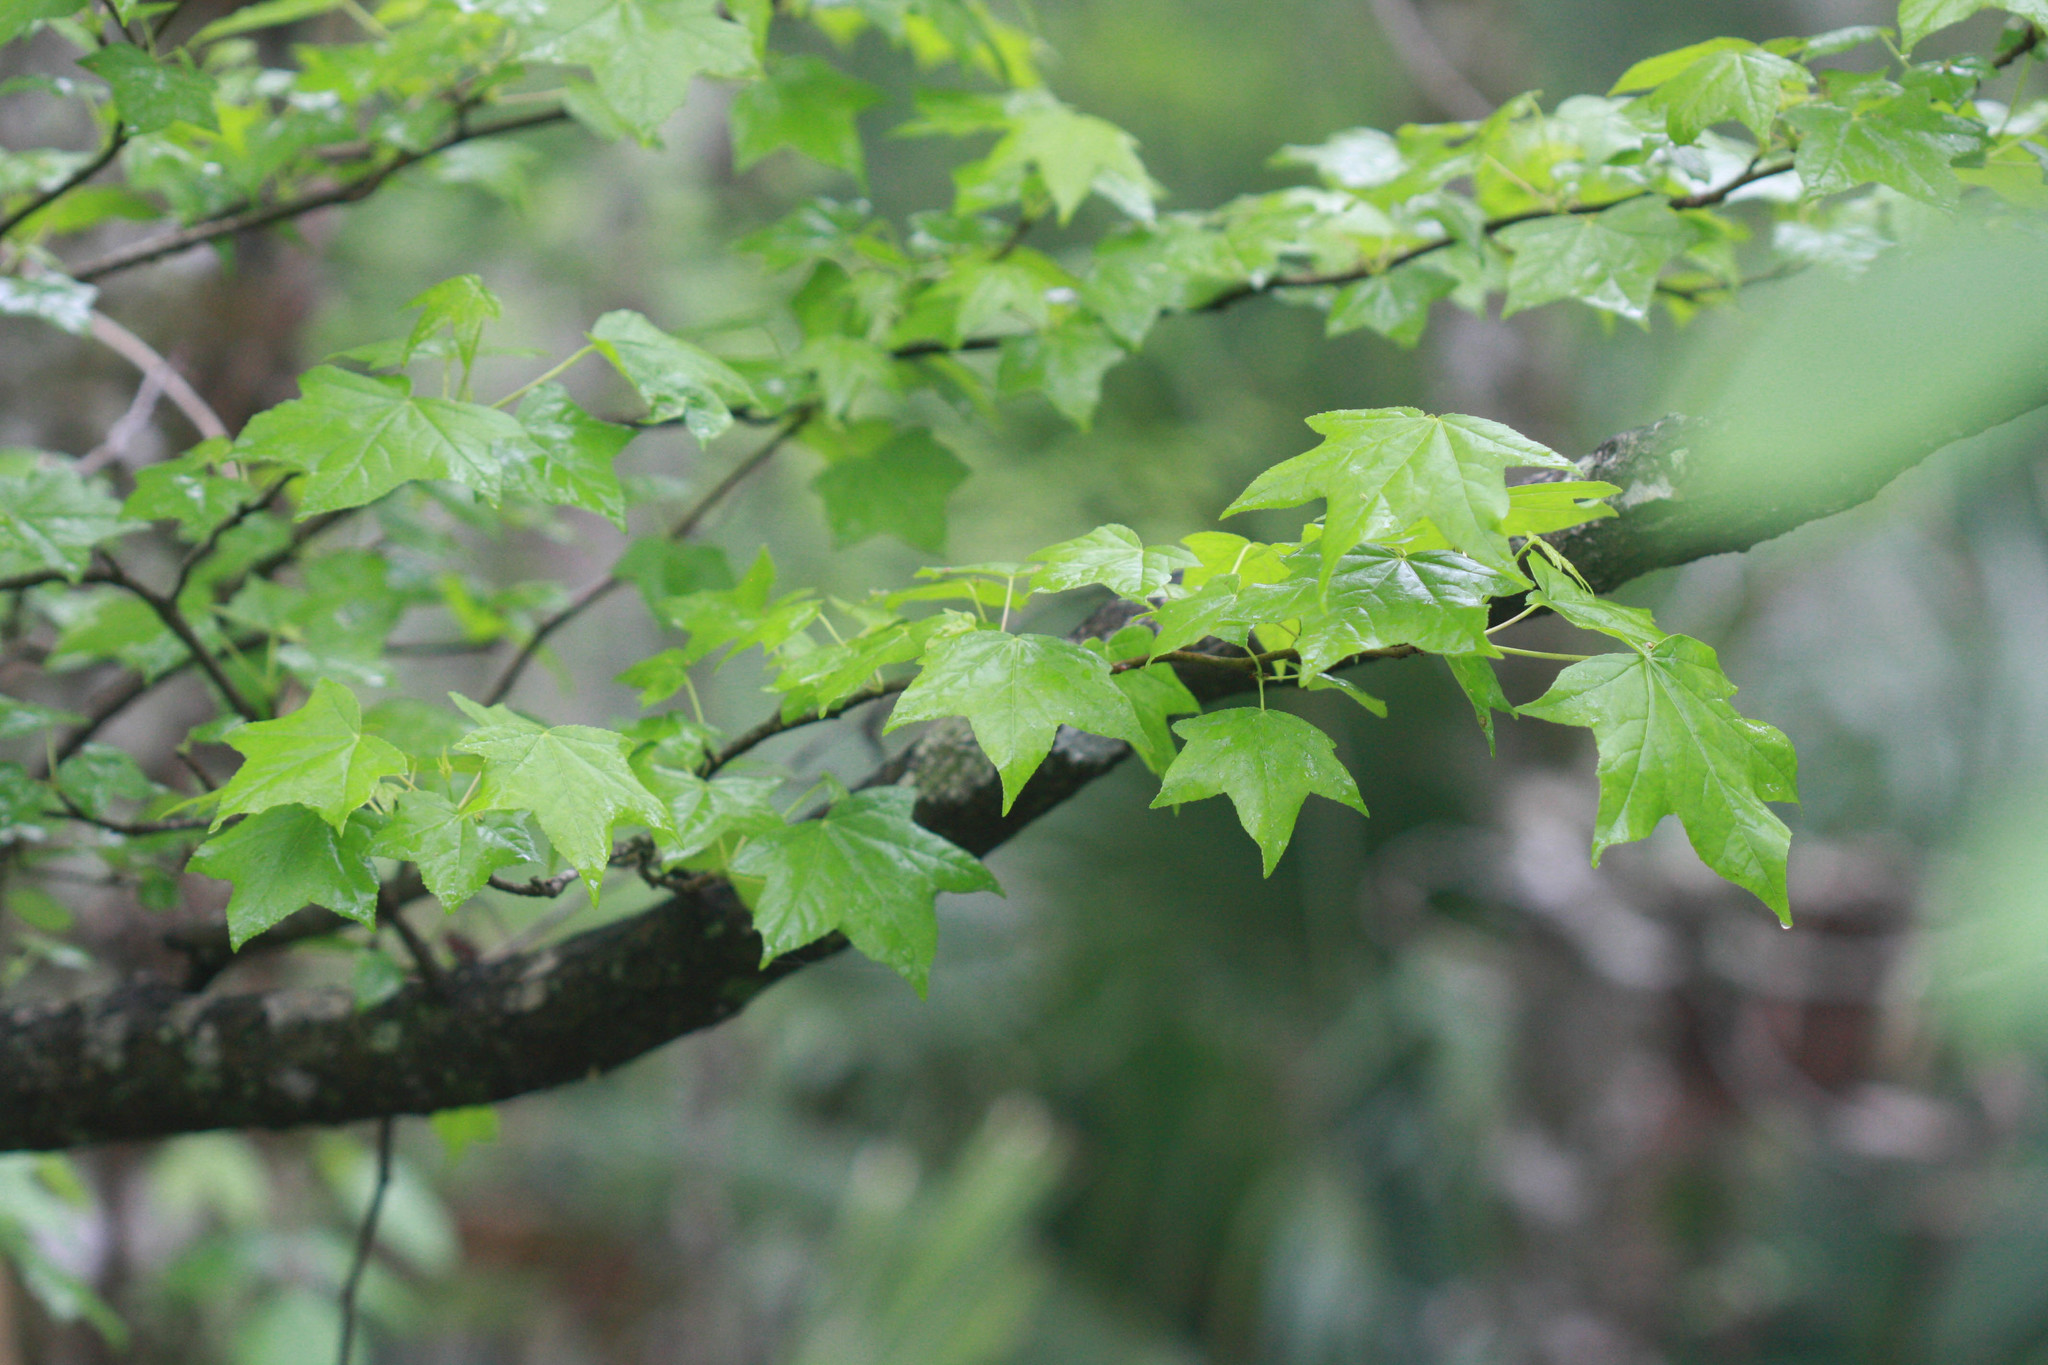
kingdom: Plantae
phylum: Tracheophyta
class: Magnoliopsida
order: Saxifragales
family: Altingiaceae
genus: Liquidambar
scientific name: Liquidambar styraciflua
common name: Sweet gum
